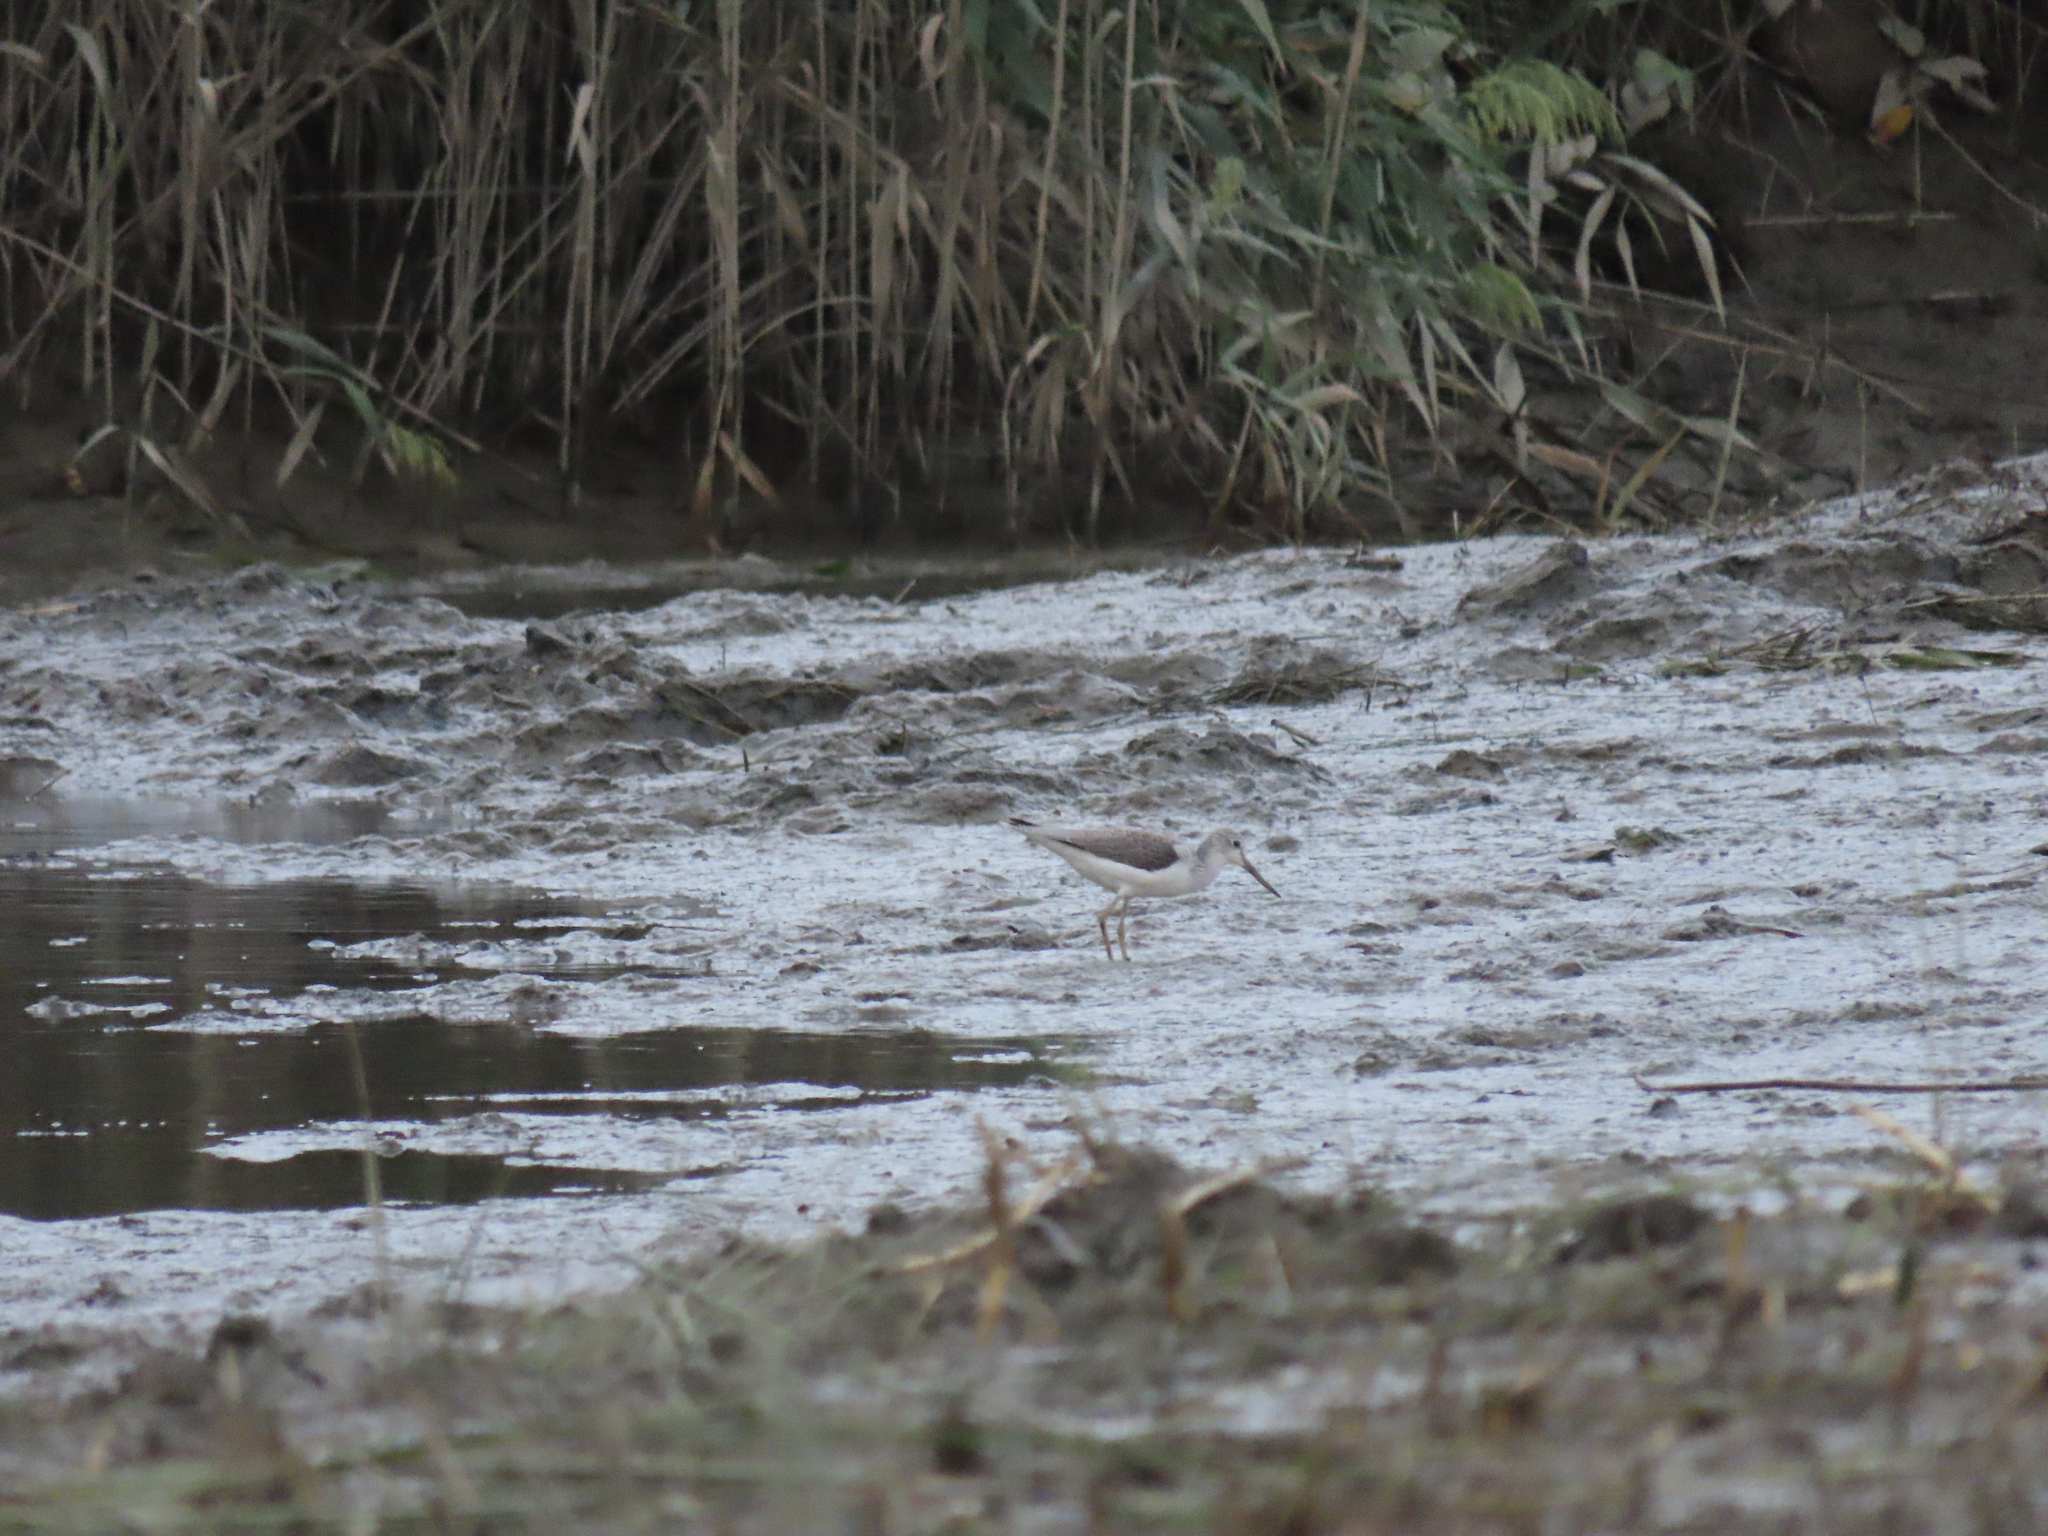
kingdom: Animalia
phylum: Chordata
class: Aves
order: Charadriiformes
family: Scolopacidae
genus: Tringa
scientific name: Tringa nebularia
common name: Common greenshank
